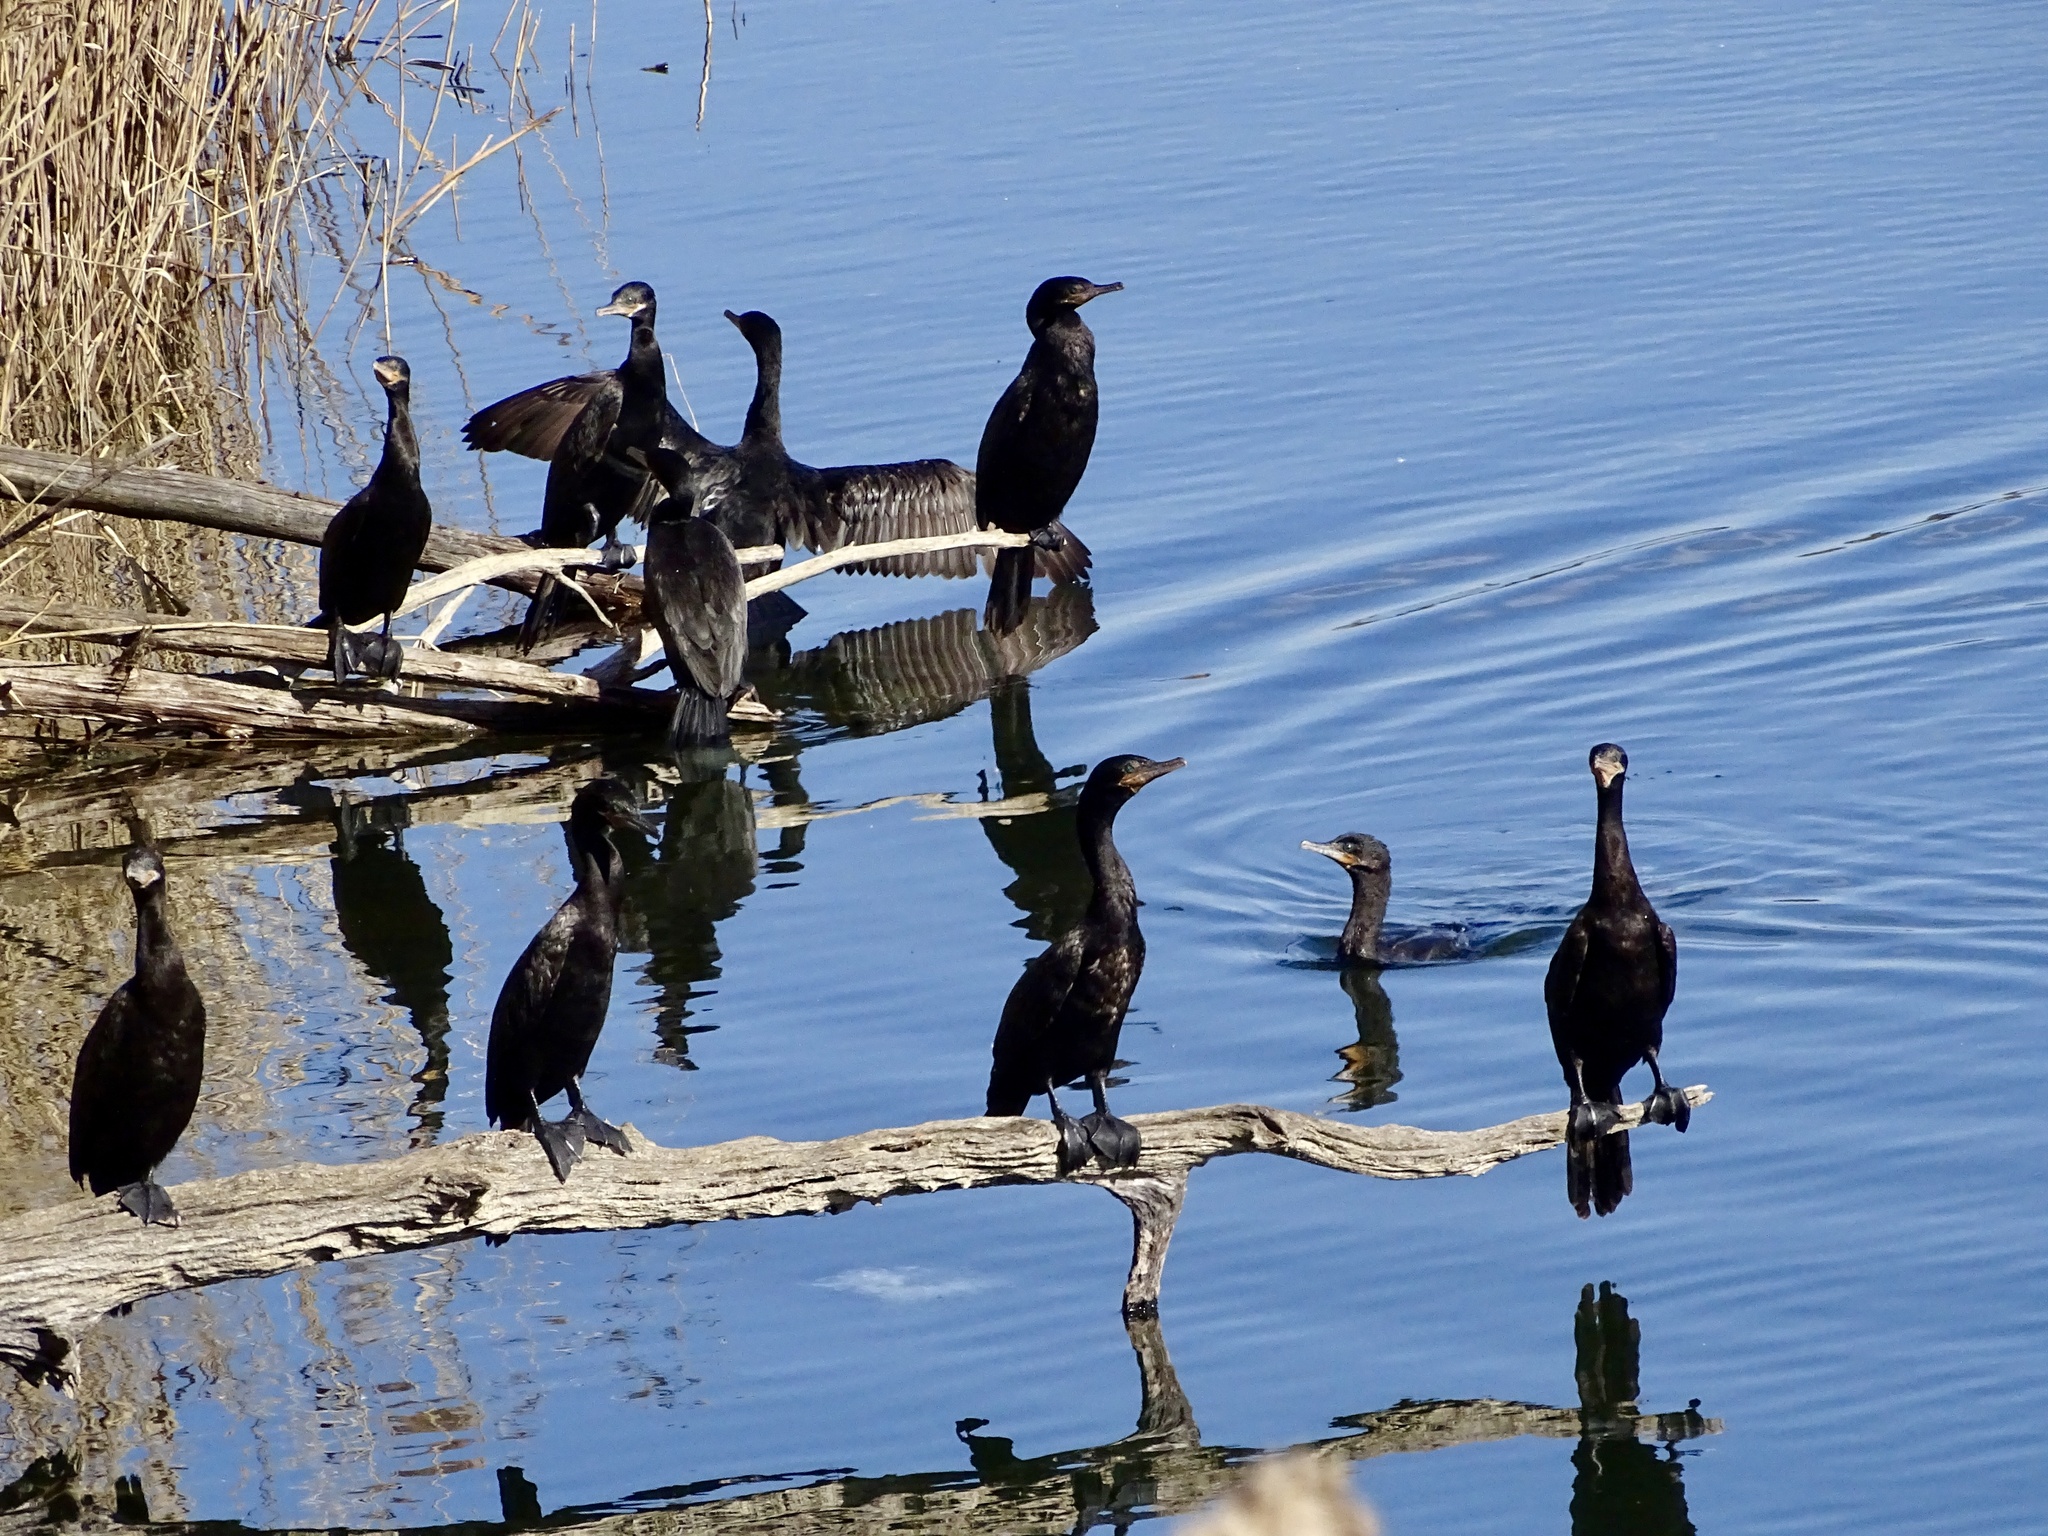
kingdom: Animalia
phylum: Chordata
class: Aves
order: Suliformes
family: Phalacrocoracidae
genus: Phalacrocorax
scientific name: Phalacrocorax brasilianus
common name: Neotropic cormorant
